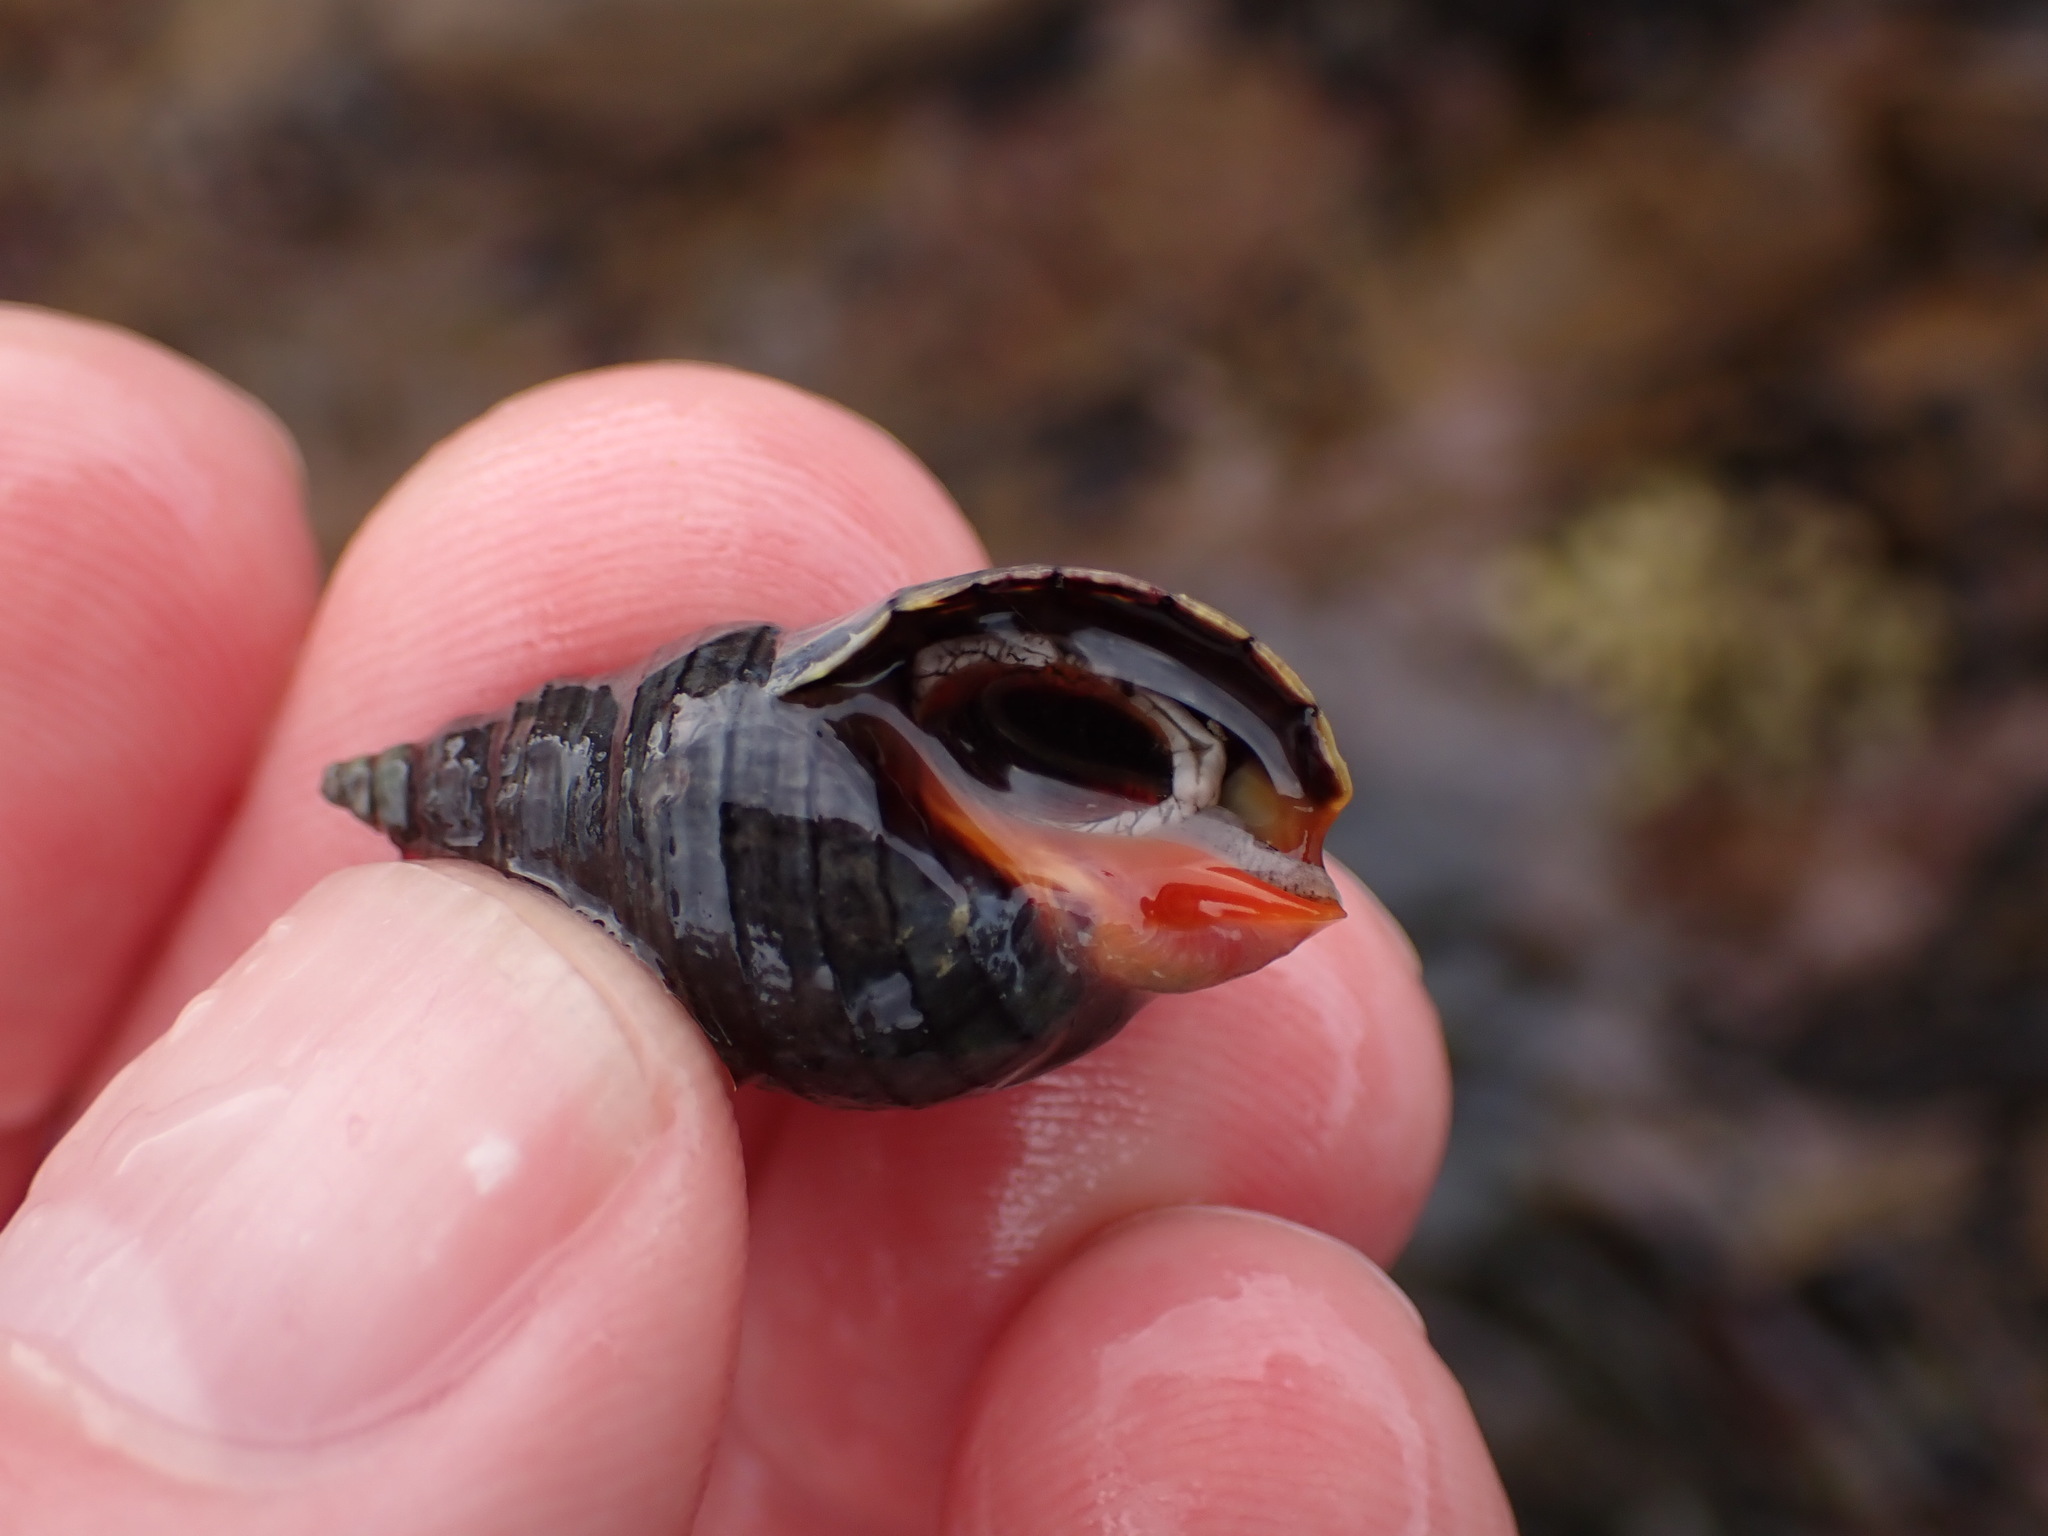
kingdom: Animalia
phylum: Mollusca
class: Gastropoda
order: Neogastropoda
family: Cominellidae
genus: Cominella
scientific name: Cominella virgata
